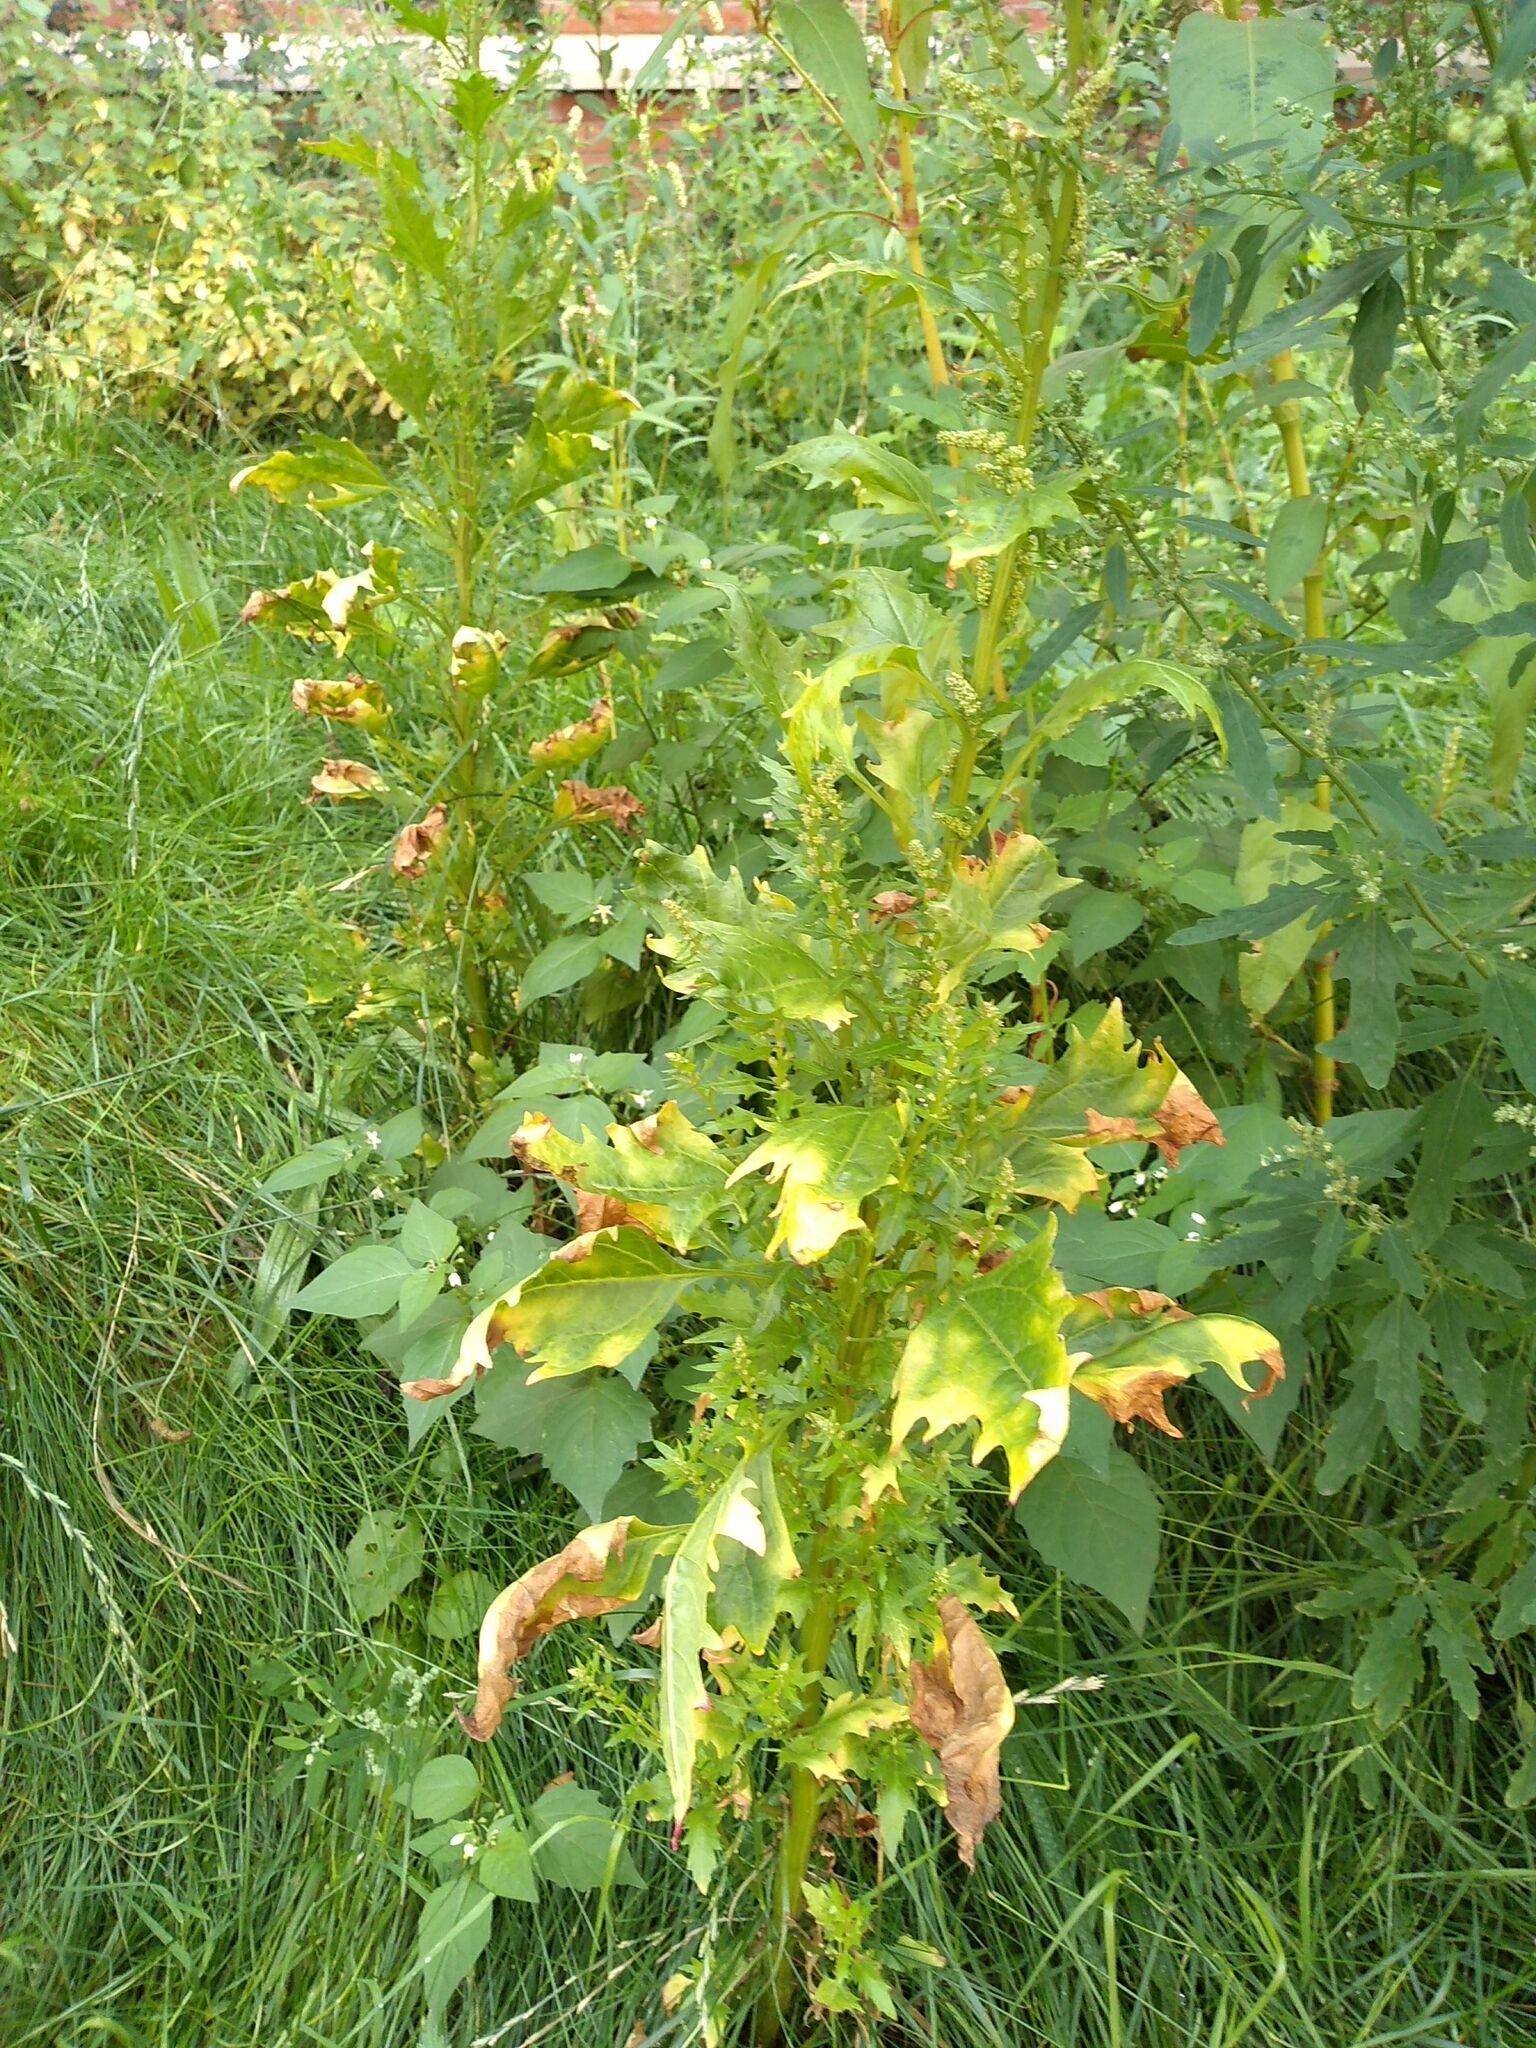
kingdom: Plantae
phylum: Tracheophyta
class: Magnoliopsida
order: Caryophyllales
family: Amaranthaceae
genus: Oxybasis
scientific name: Oxybasis rubra
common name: Red goosefoot
